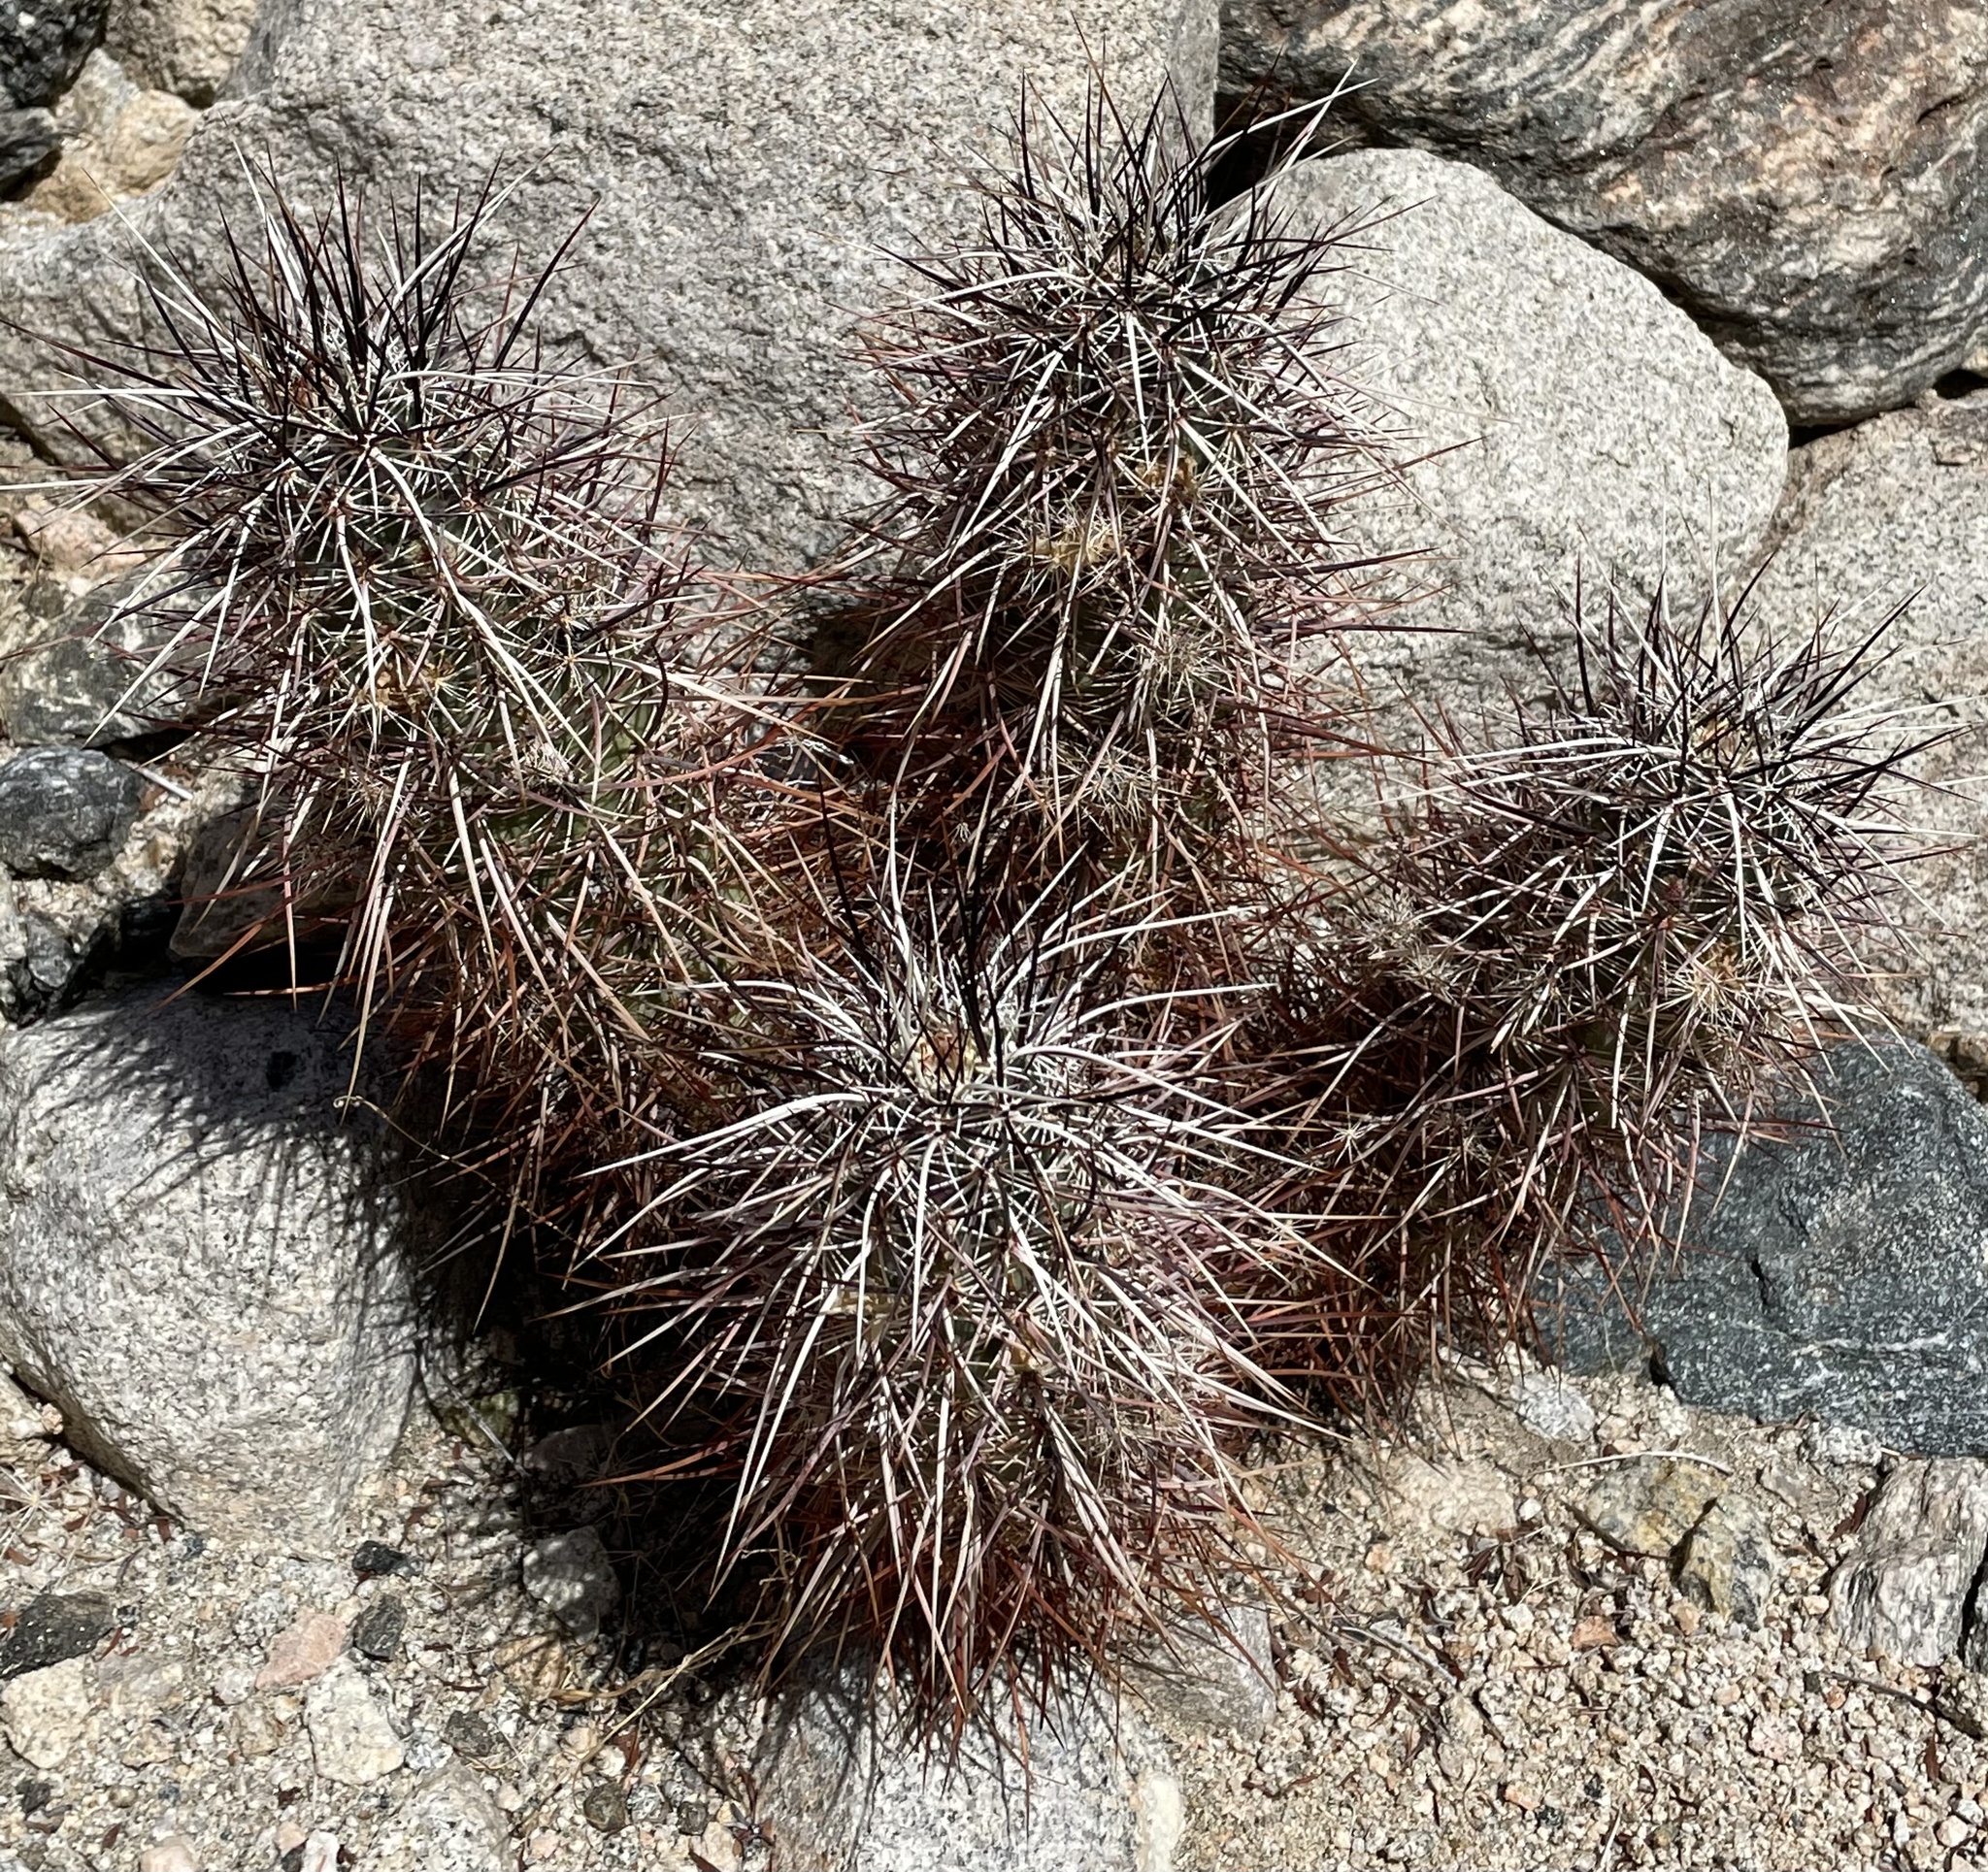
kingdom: Plantae
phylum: Tracheophyta
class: Magnoliopsida
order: Caryophyllales
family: Cactaceae
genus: Echinocereus
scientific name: Echinocereus engelmannii
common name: Engelmann's hedgehog cactus
